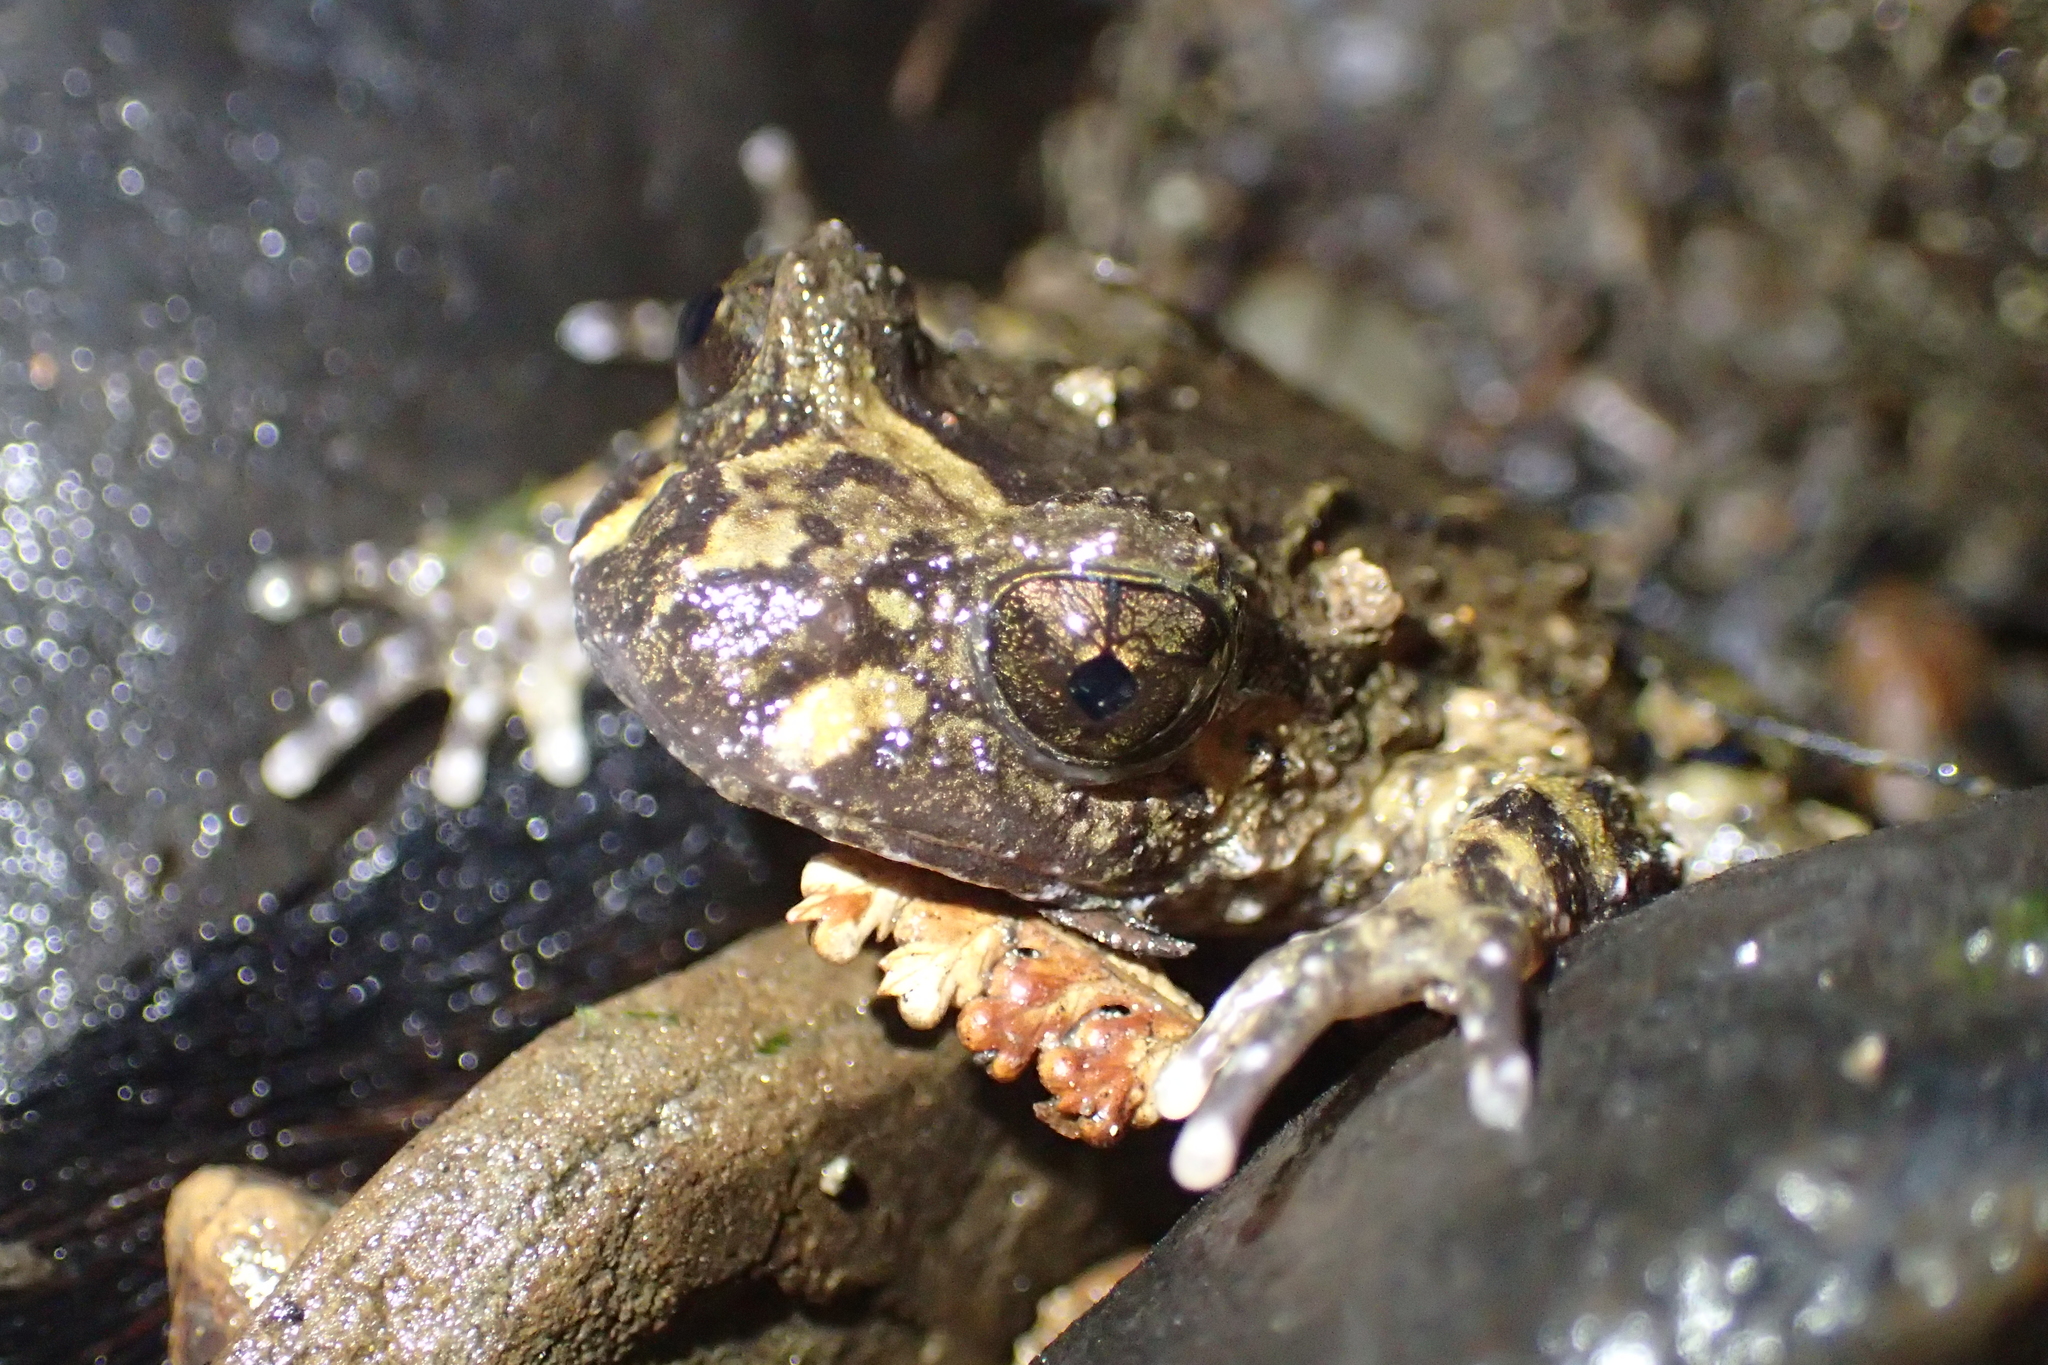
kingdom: Animalia
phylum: Chordata
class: Amphibia
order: Anura
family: Leiopelmatidae
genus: Leiopelma
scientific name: Leiopelma hochstetteri
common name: Hochstetters new zealand frog
